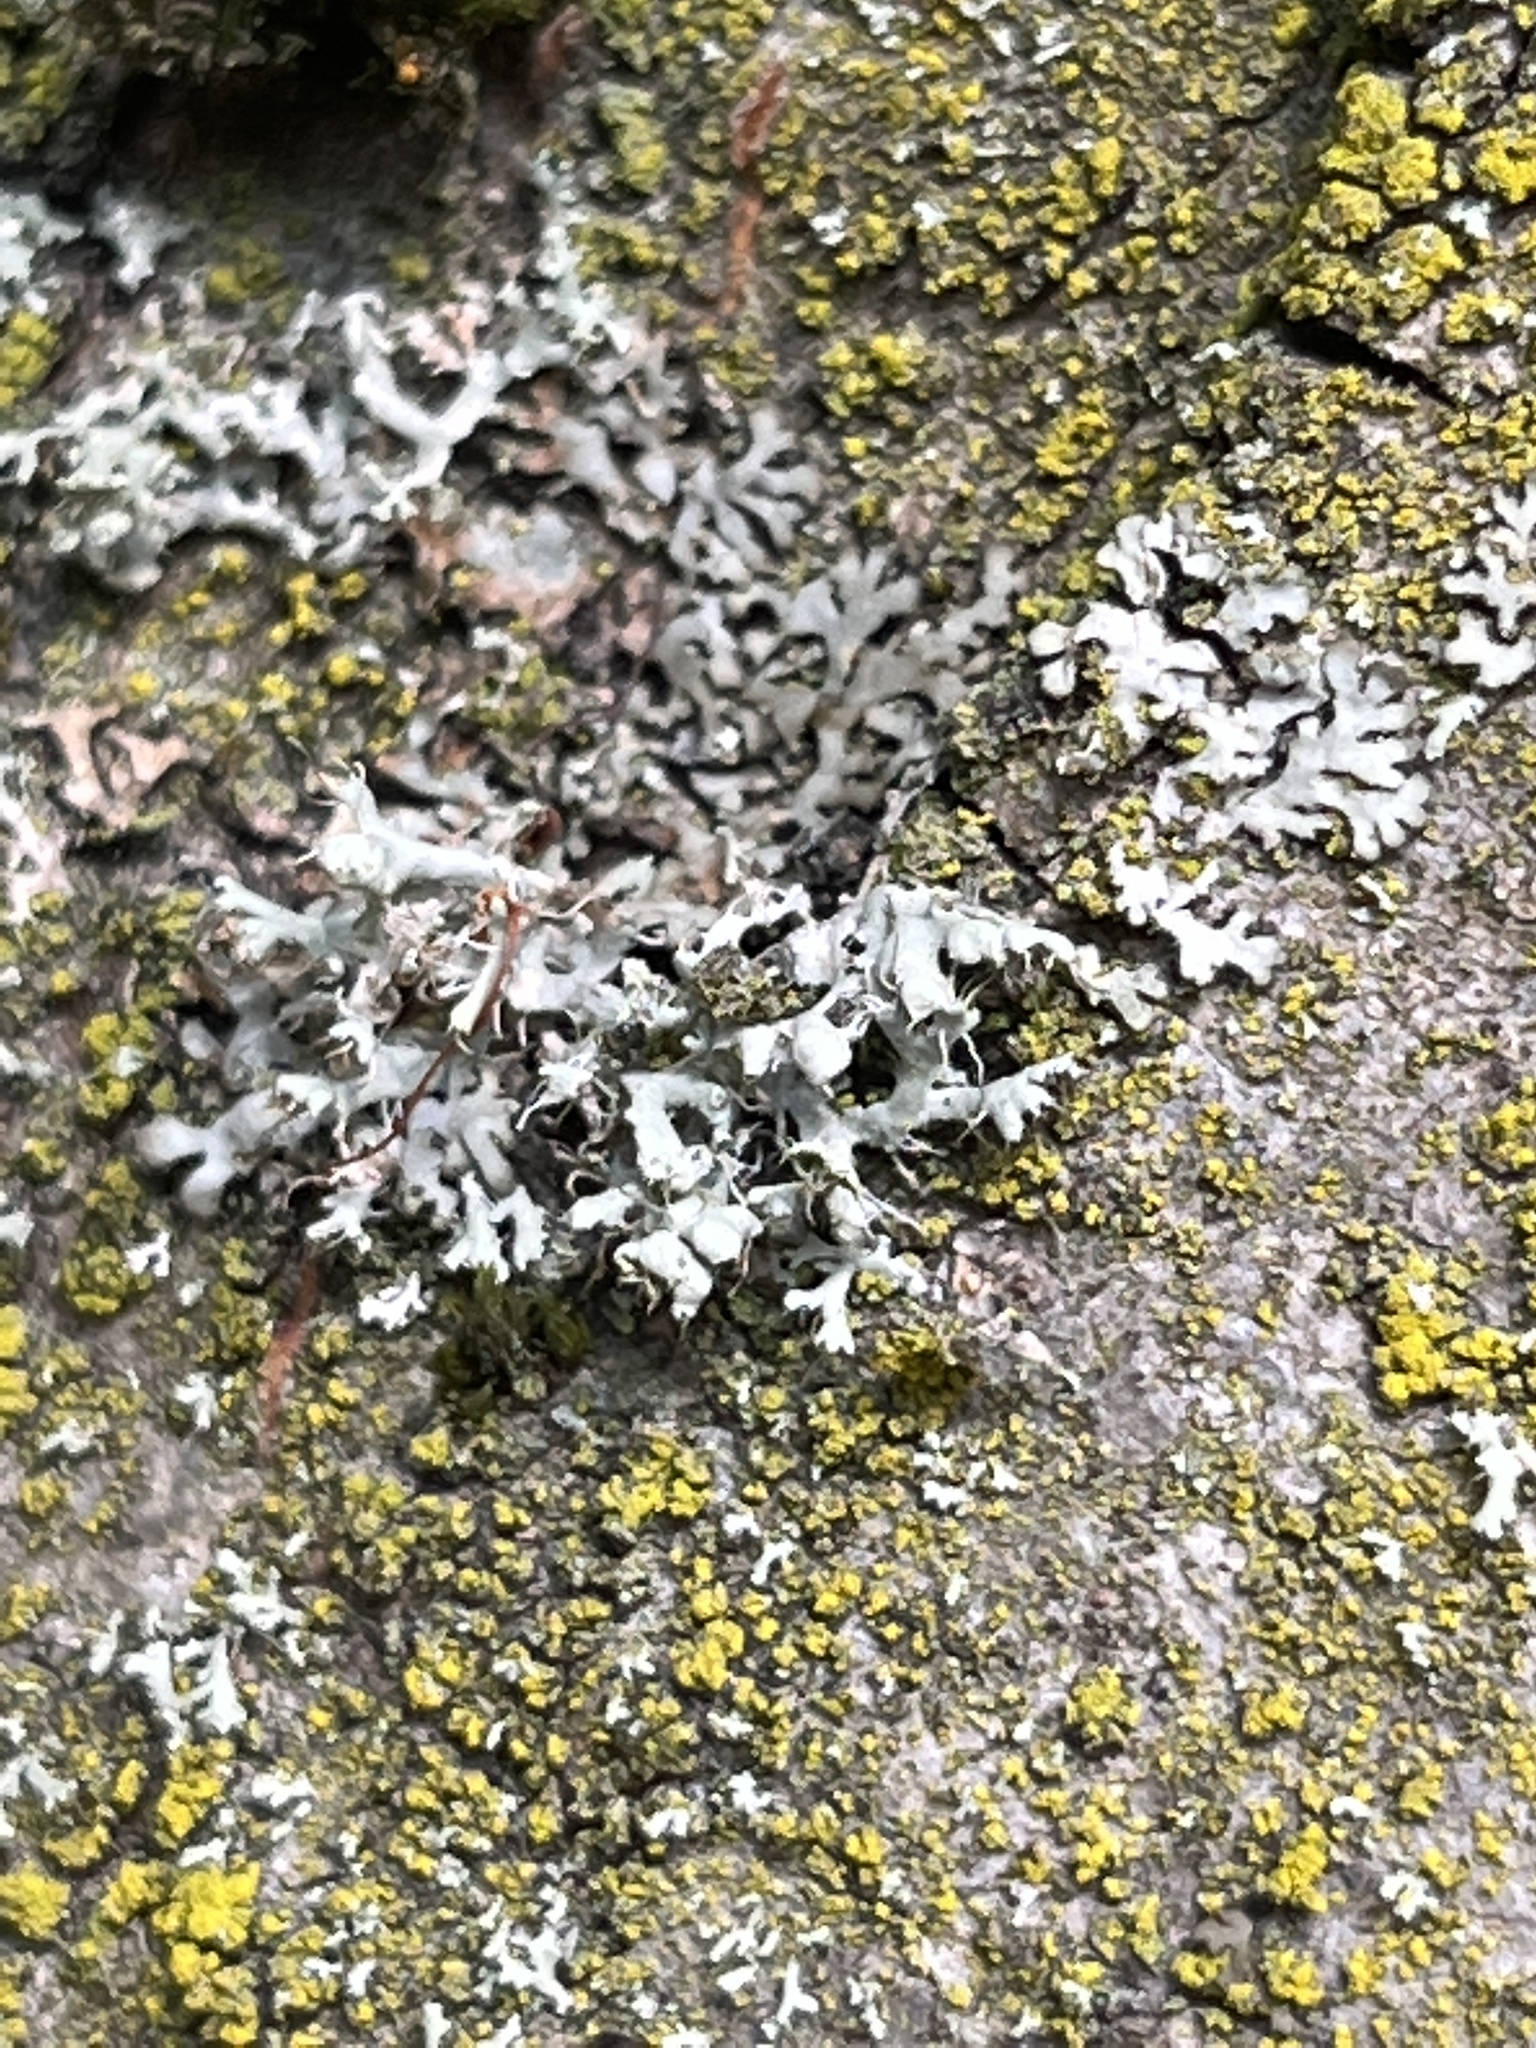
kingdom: Fungi
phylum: Ascomycota
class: Lecanoromycetes
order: Caliciales
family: Physciaceae
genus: Physcia
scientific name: Physcia adscendens
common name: Hooded rosette lichen
